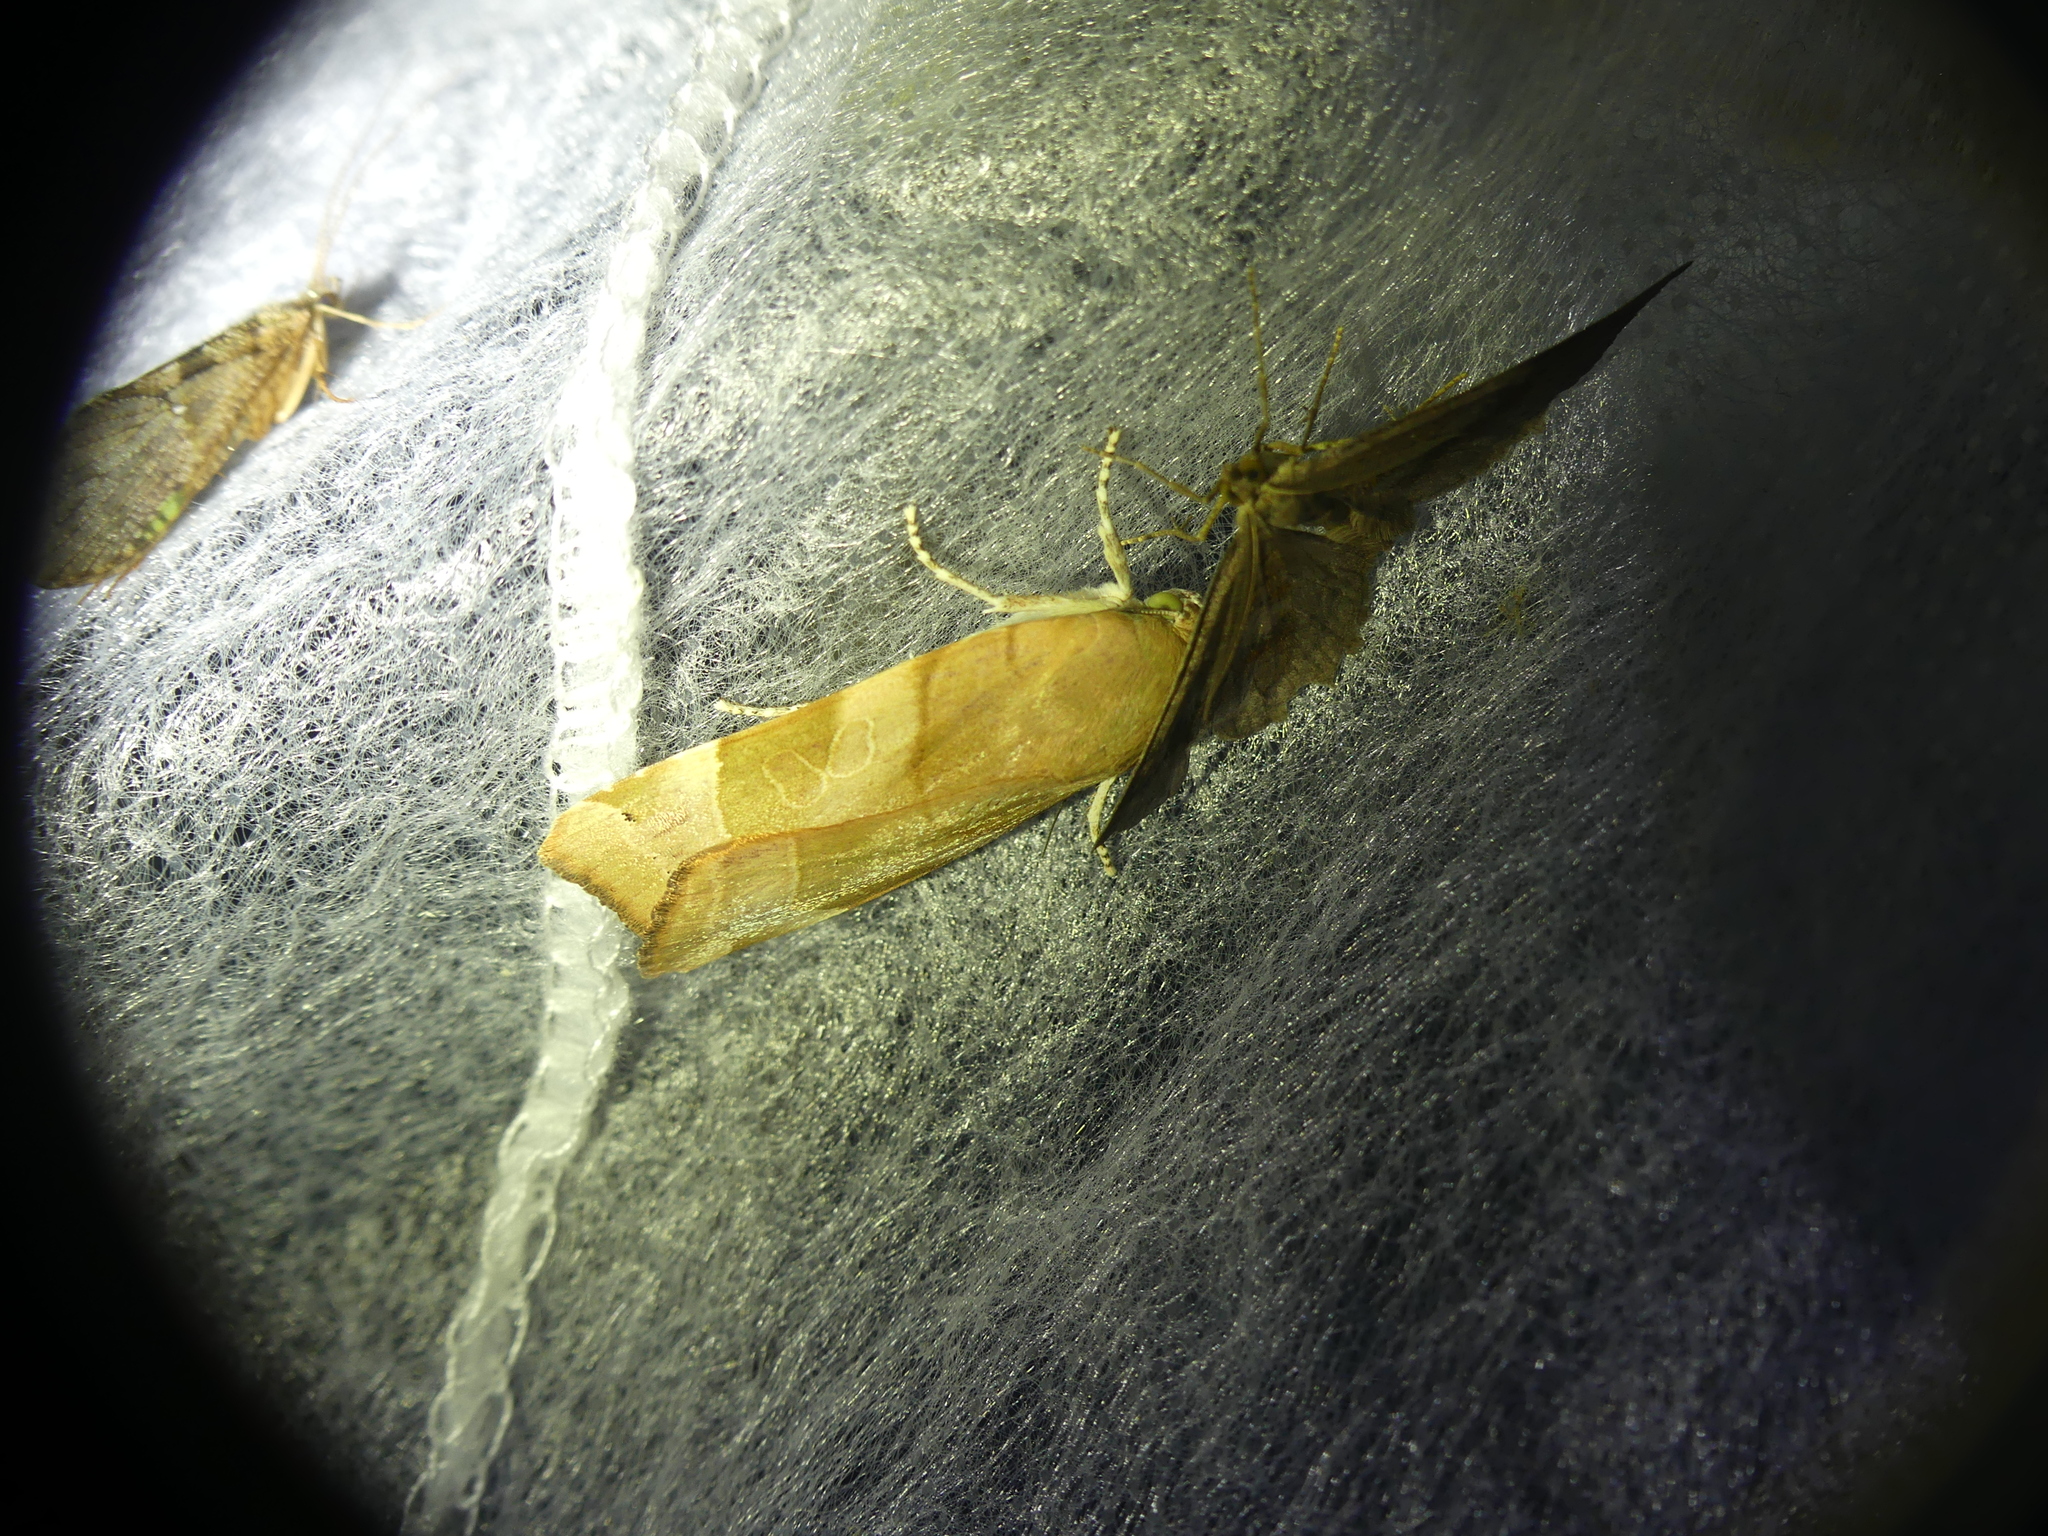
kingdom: Animalia
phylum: Arthropoda
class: Insecta
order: Lepidoptera
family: Noctuidae
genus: Noctua
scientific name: Noctua fimbriata
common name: Broad-bordered yellow underwing
